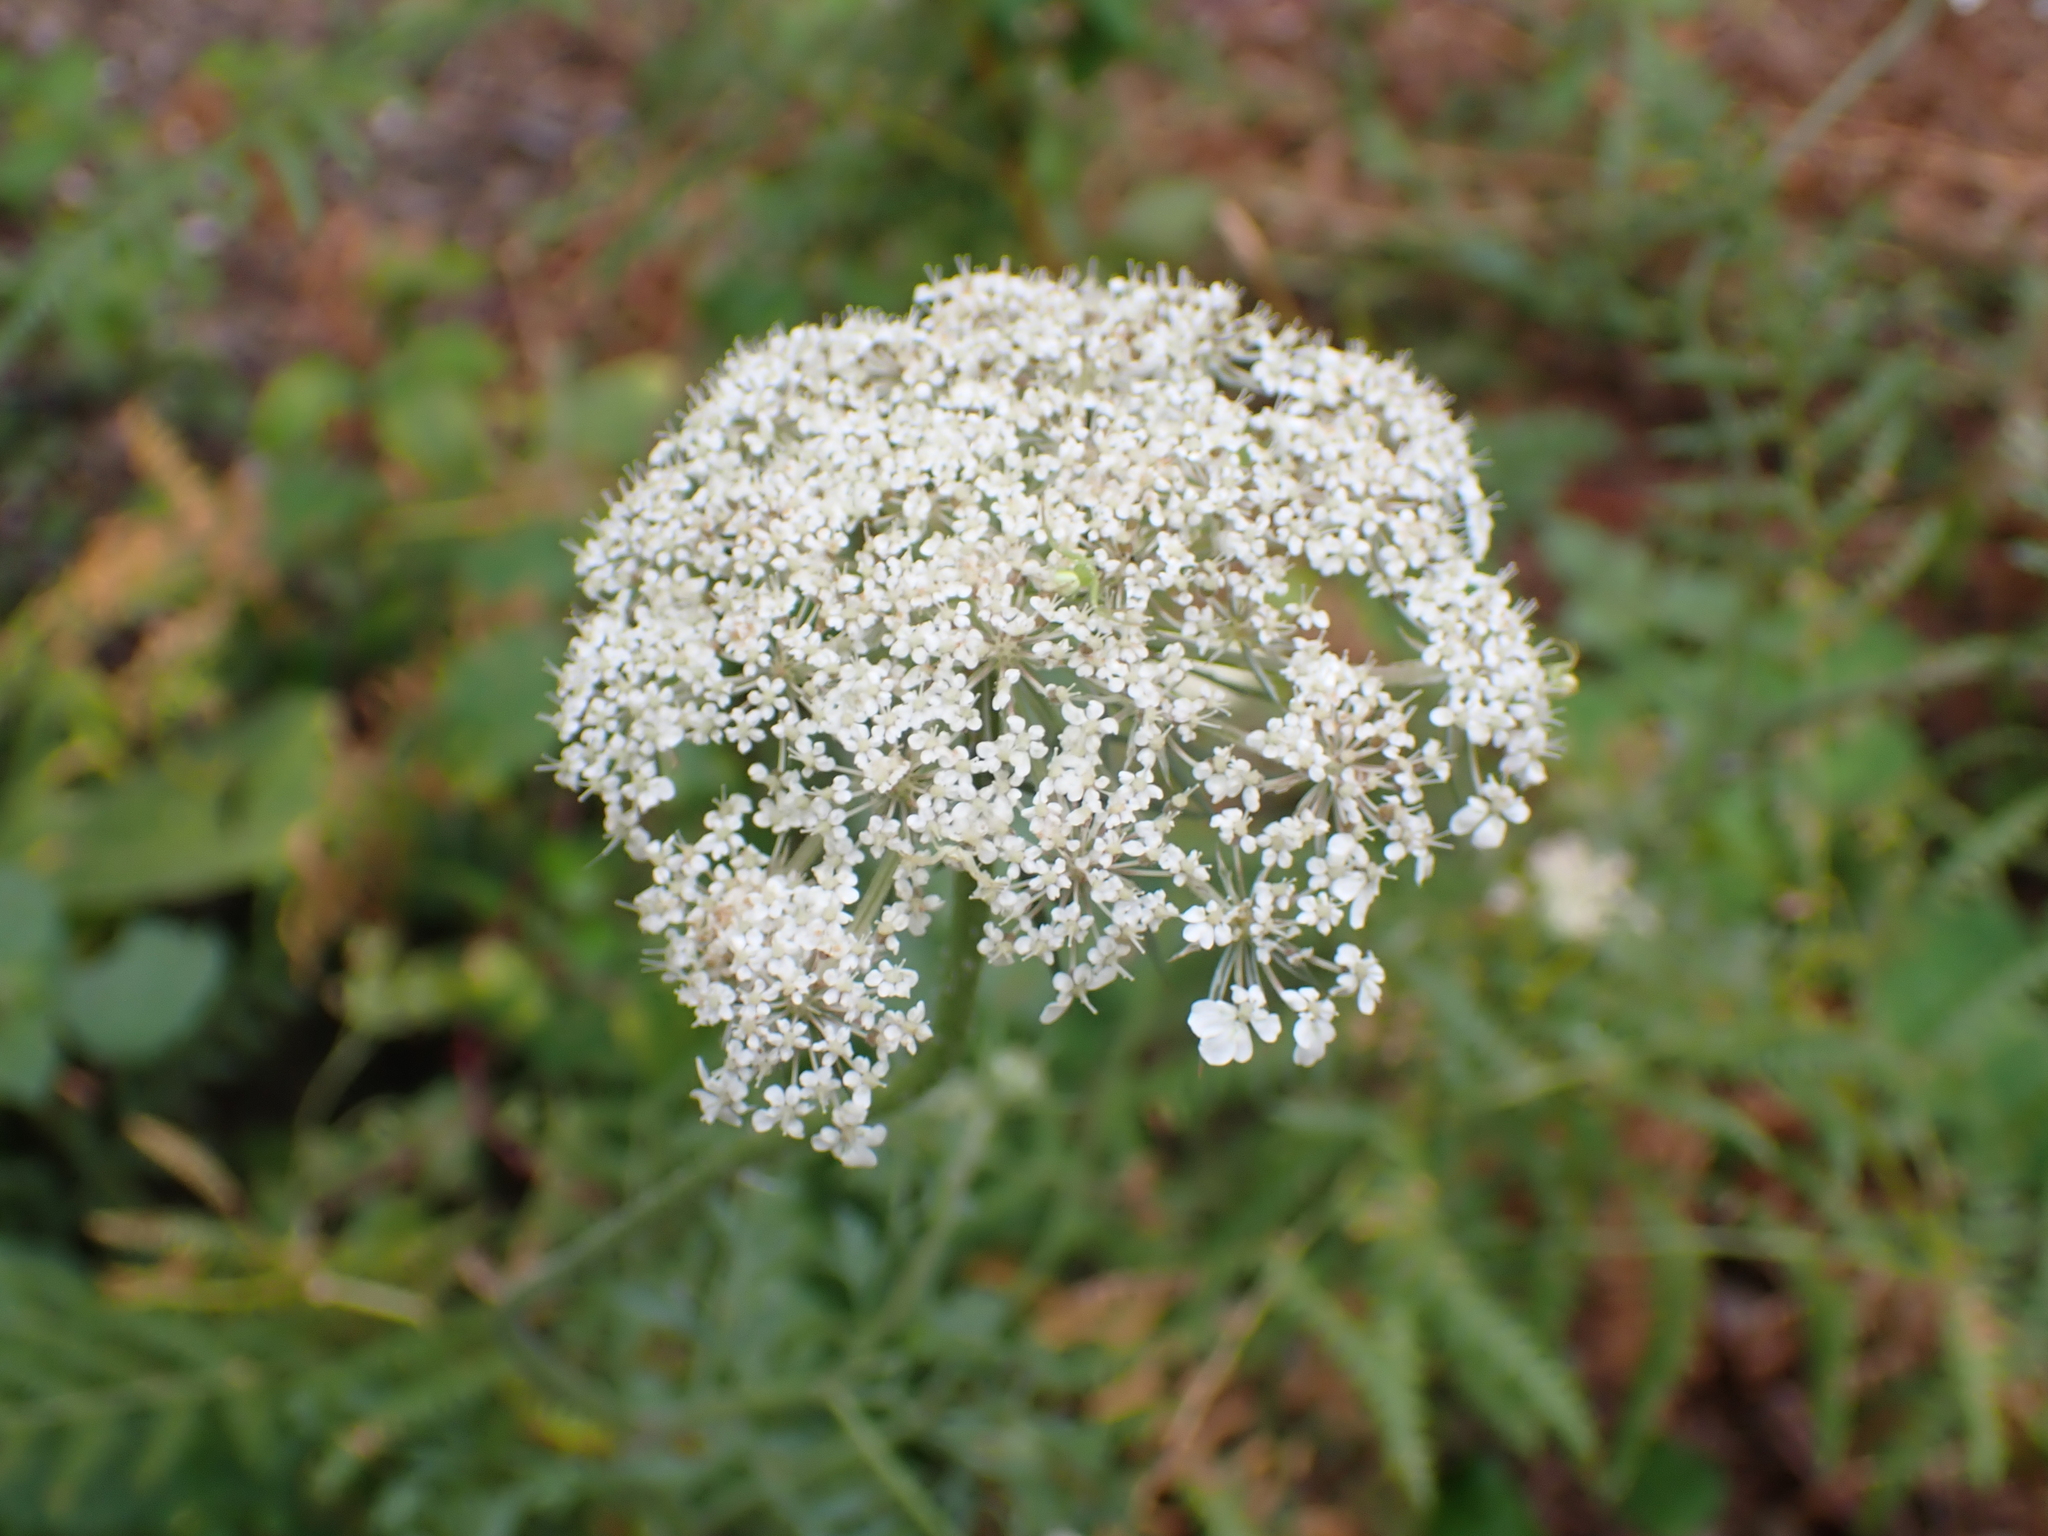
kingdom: Plantae
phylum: Tracheophyta
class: Magnoliopsida
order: Apiales
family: Apiaceae
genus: Daucus
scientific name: Daucus carota
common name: Wild carrot
